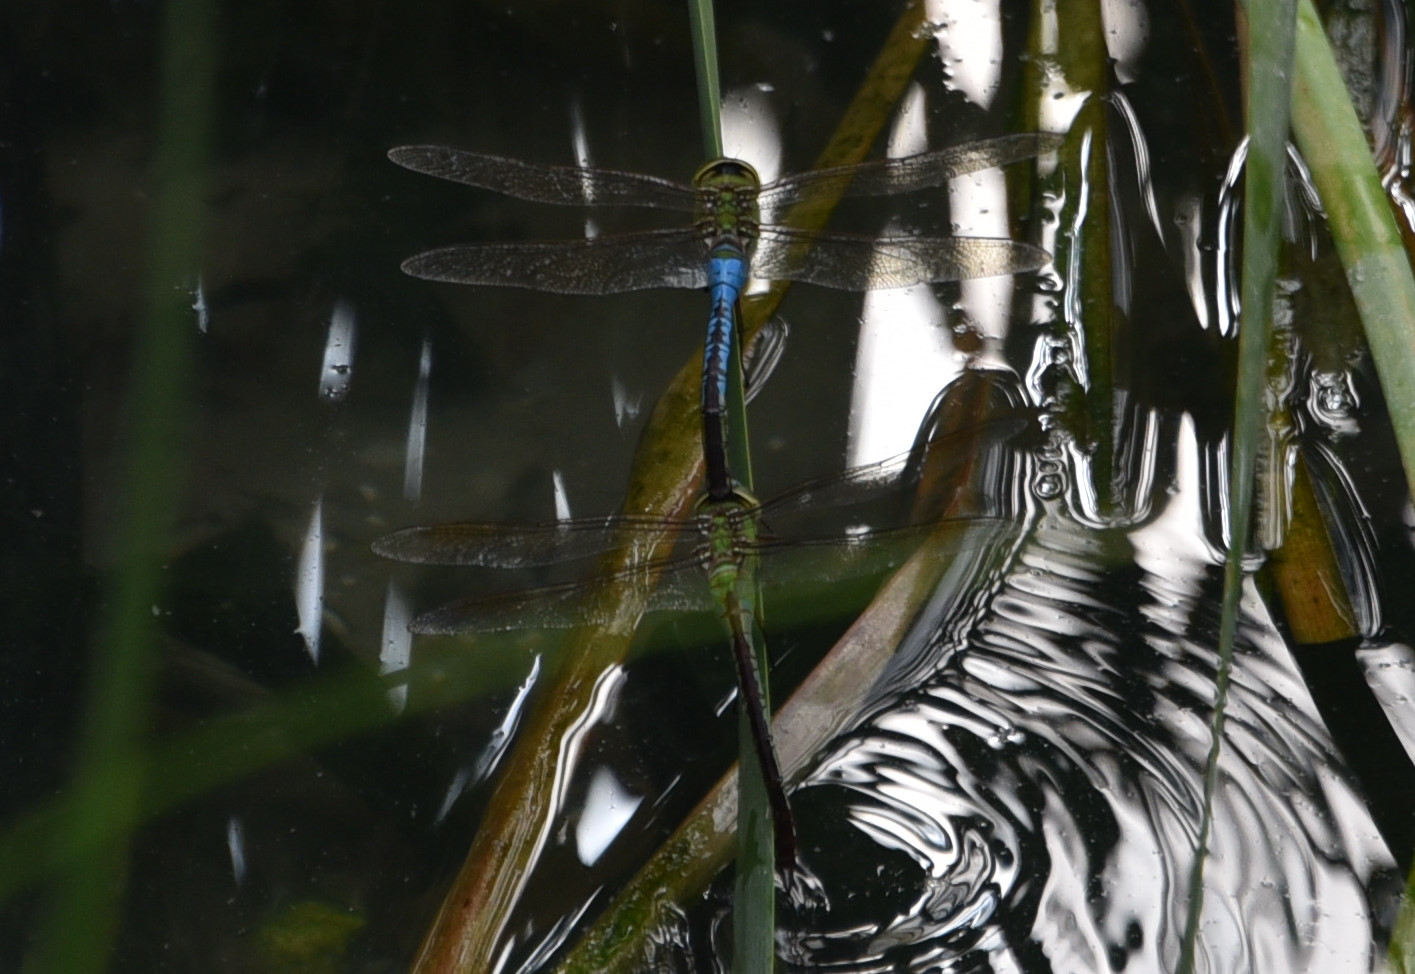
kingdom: Animalia
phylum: Arthropoda
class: Insecta
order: Odonata
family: Aeshnidae
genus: Anax
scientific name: Anax junius
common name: Common green darner
